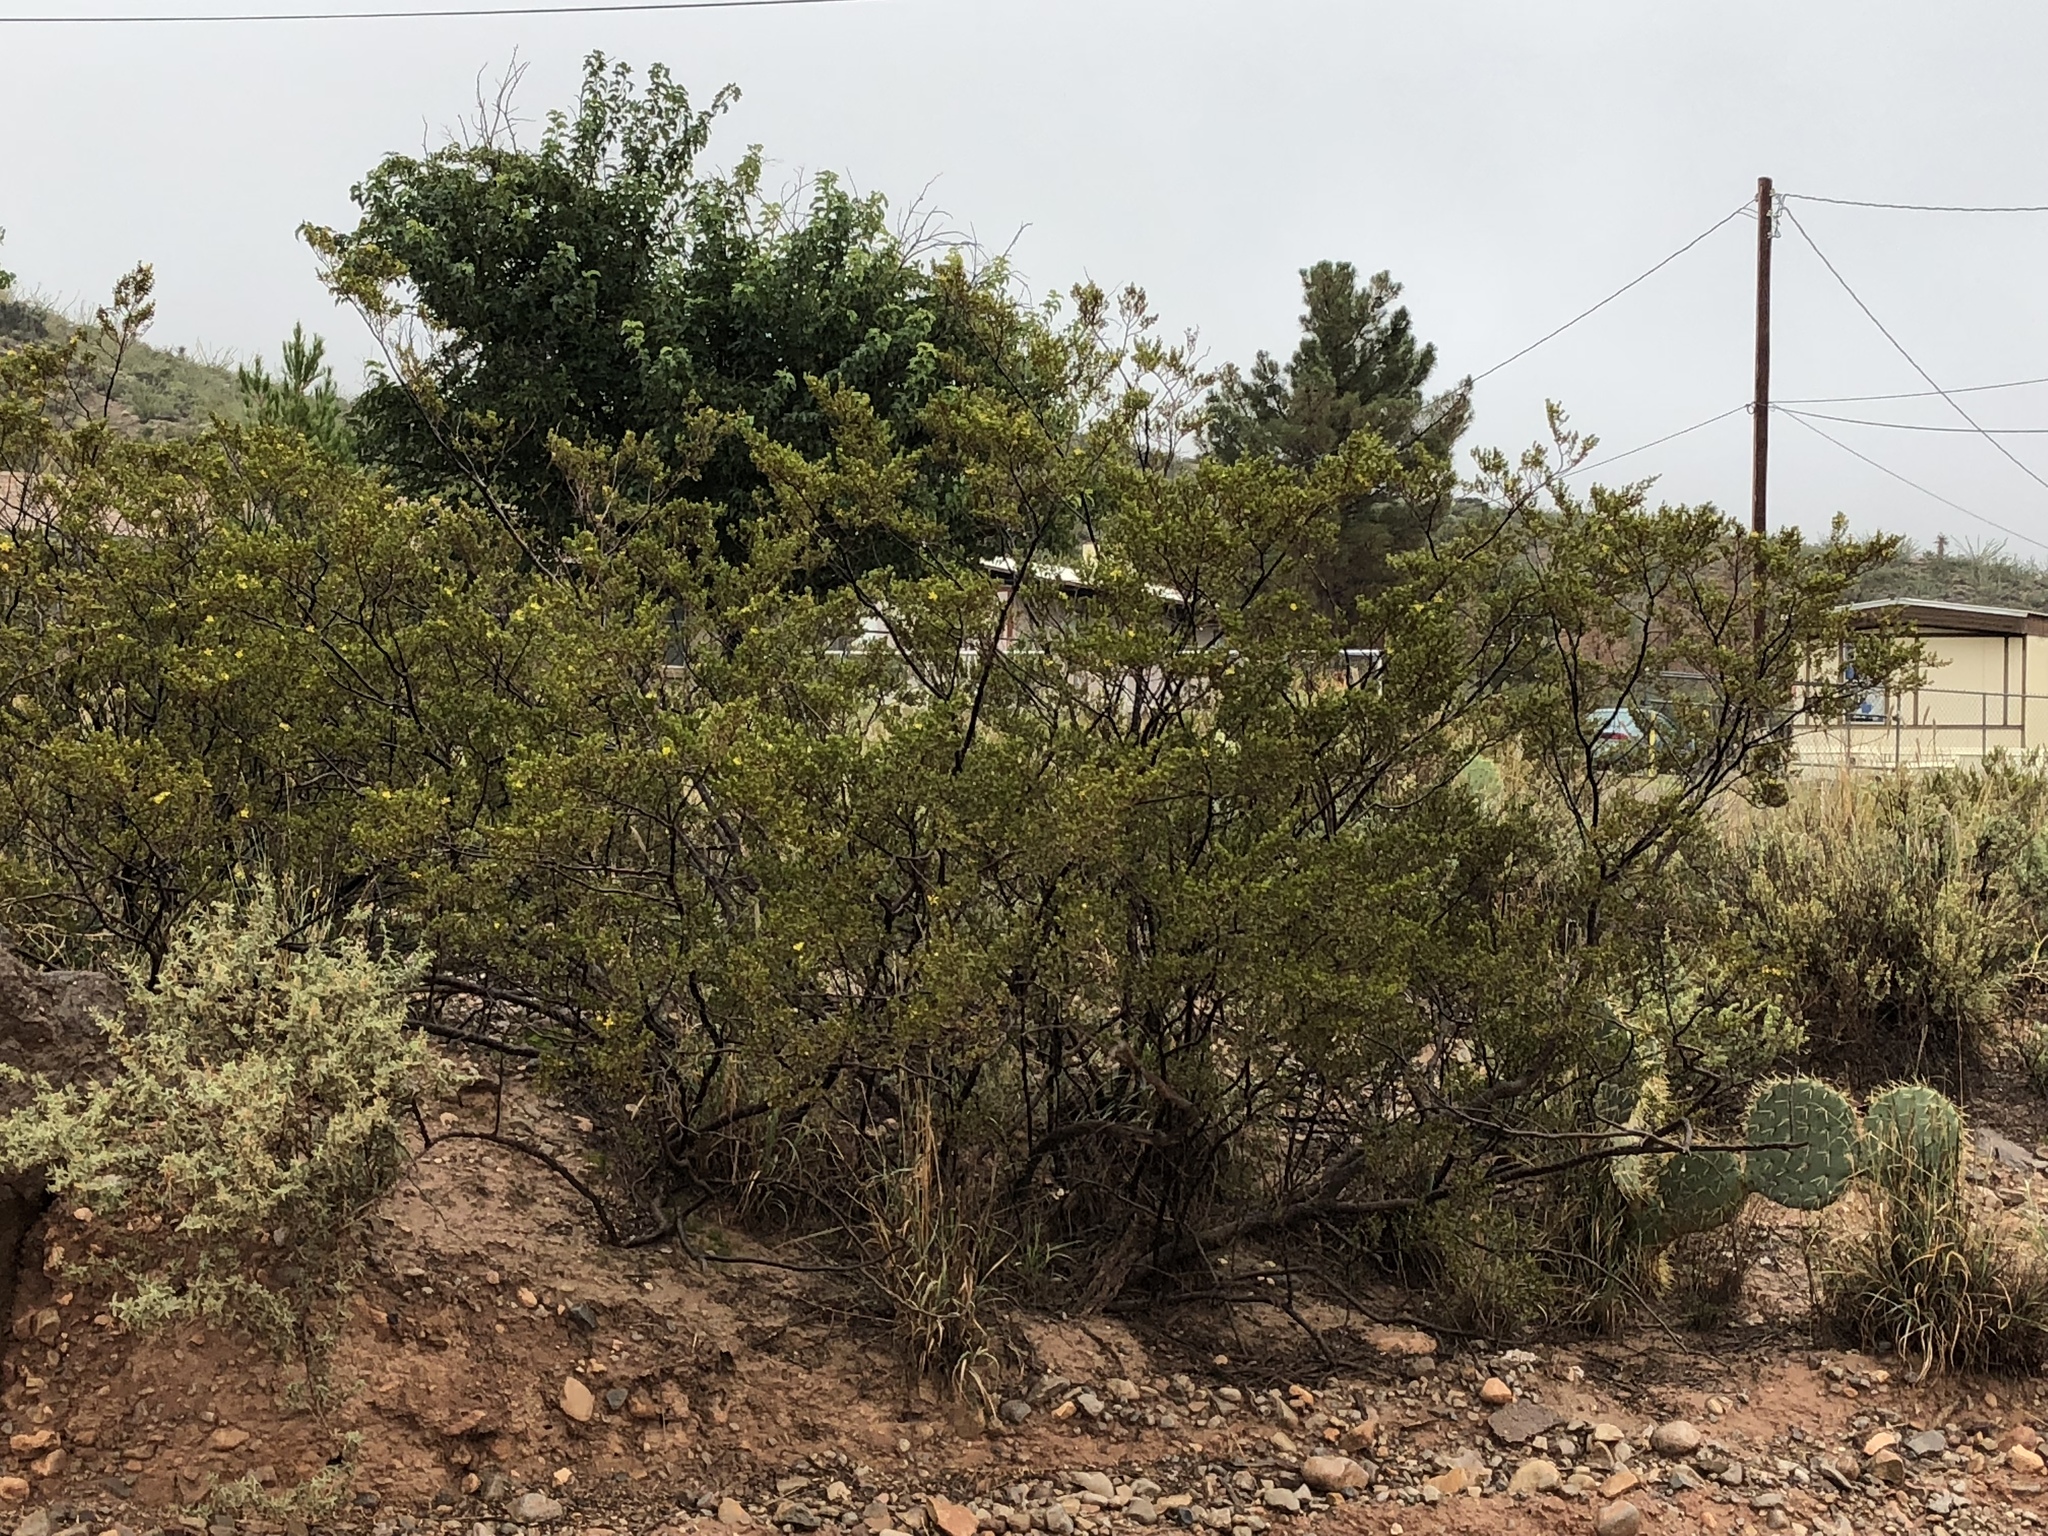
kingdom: Plantae
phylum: Tracheophyta
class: Magnoliopsida
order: Zygophyllales
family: Zygophyllaceae
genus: Larrea
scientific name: Larrea tridentata
